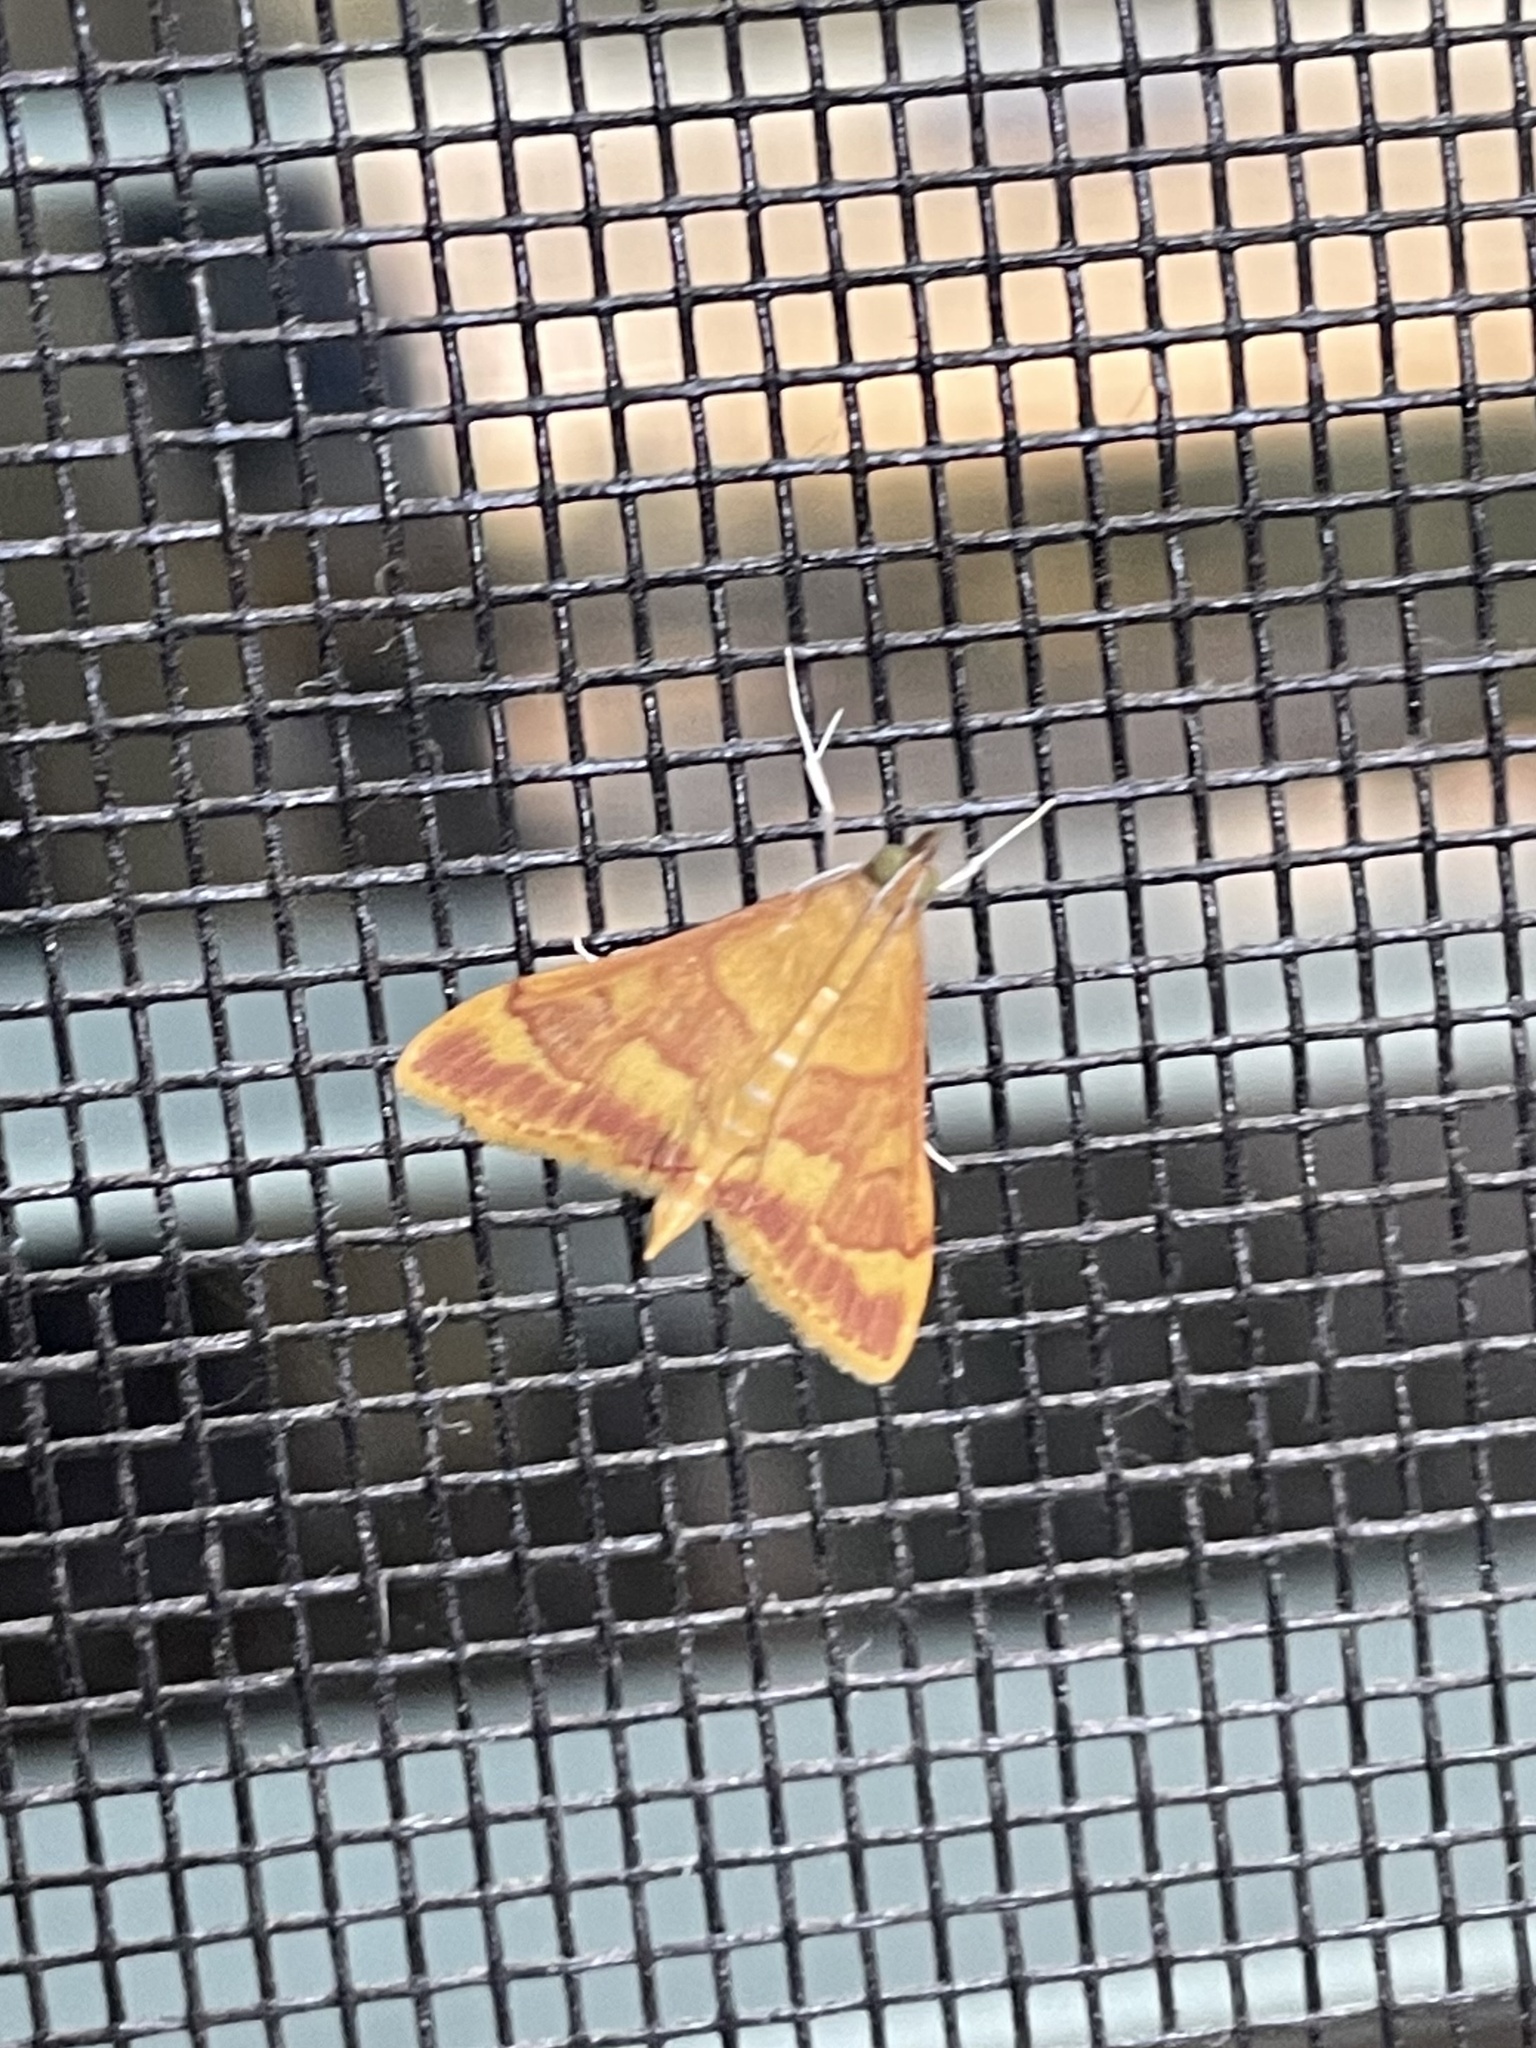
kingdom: Animalia
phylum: Arthropoda
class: Insecta
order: Lepidoptera
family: Crambidae
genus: Pyrausta
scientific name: Pyrausta pseudonythesalis
